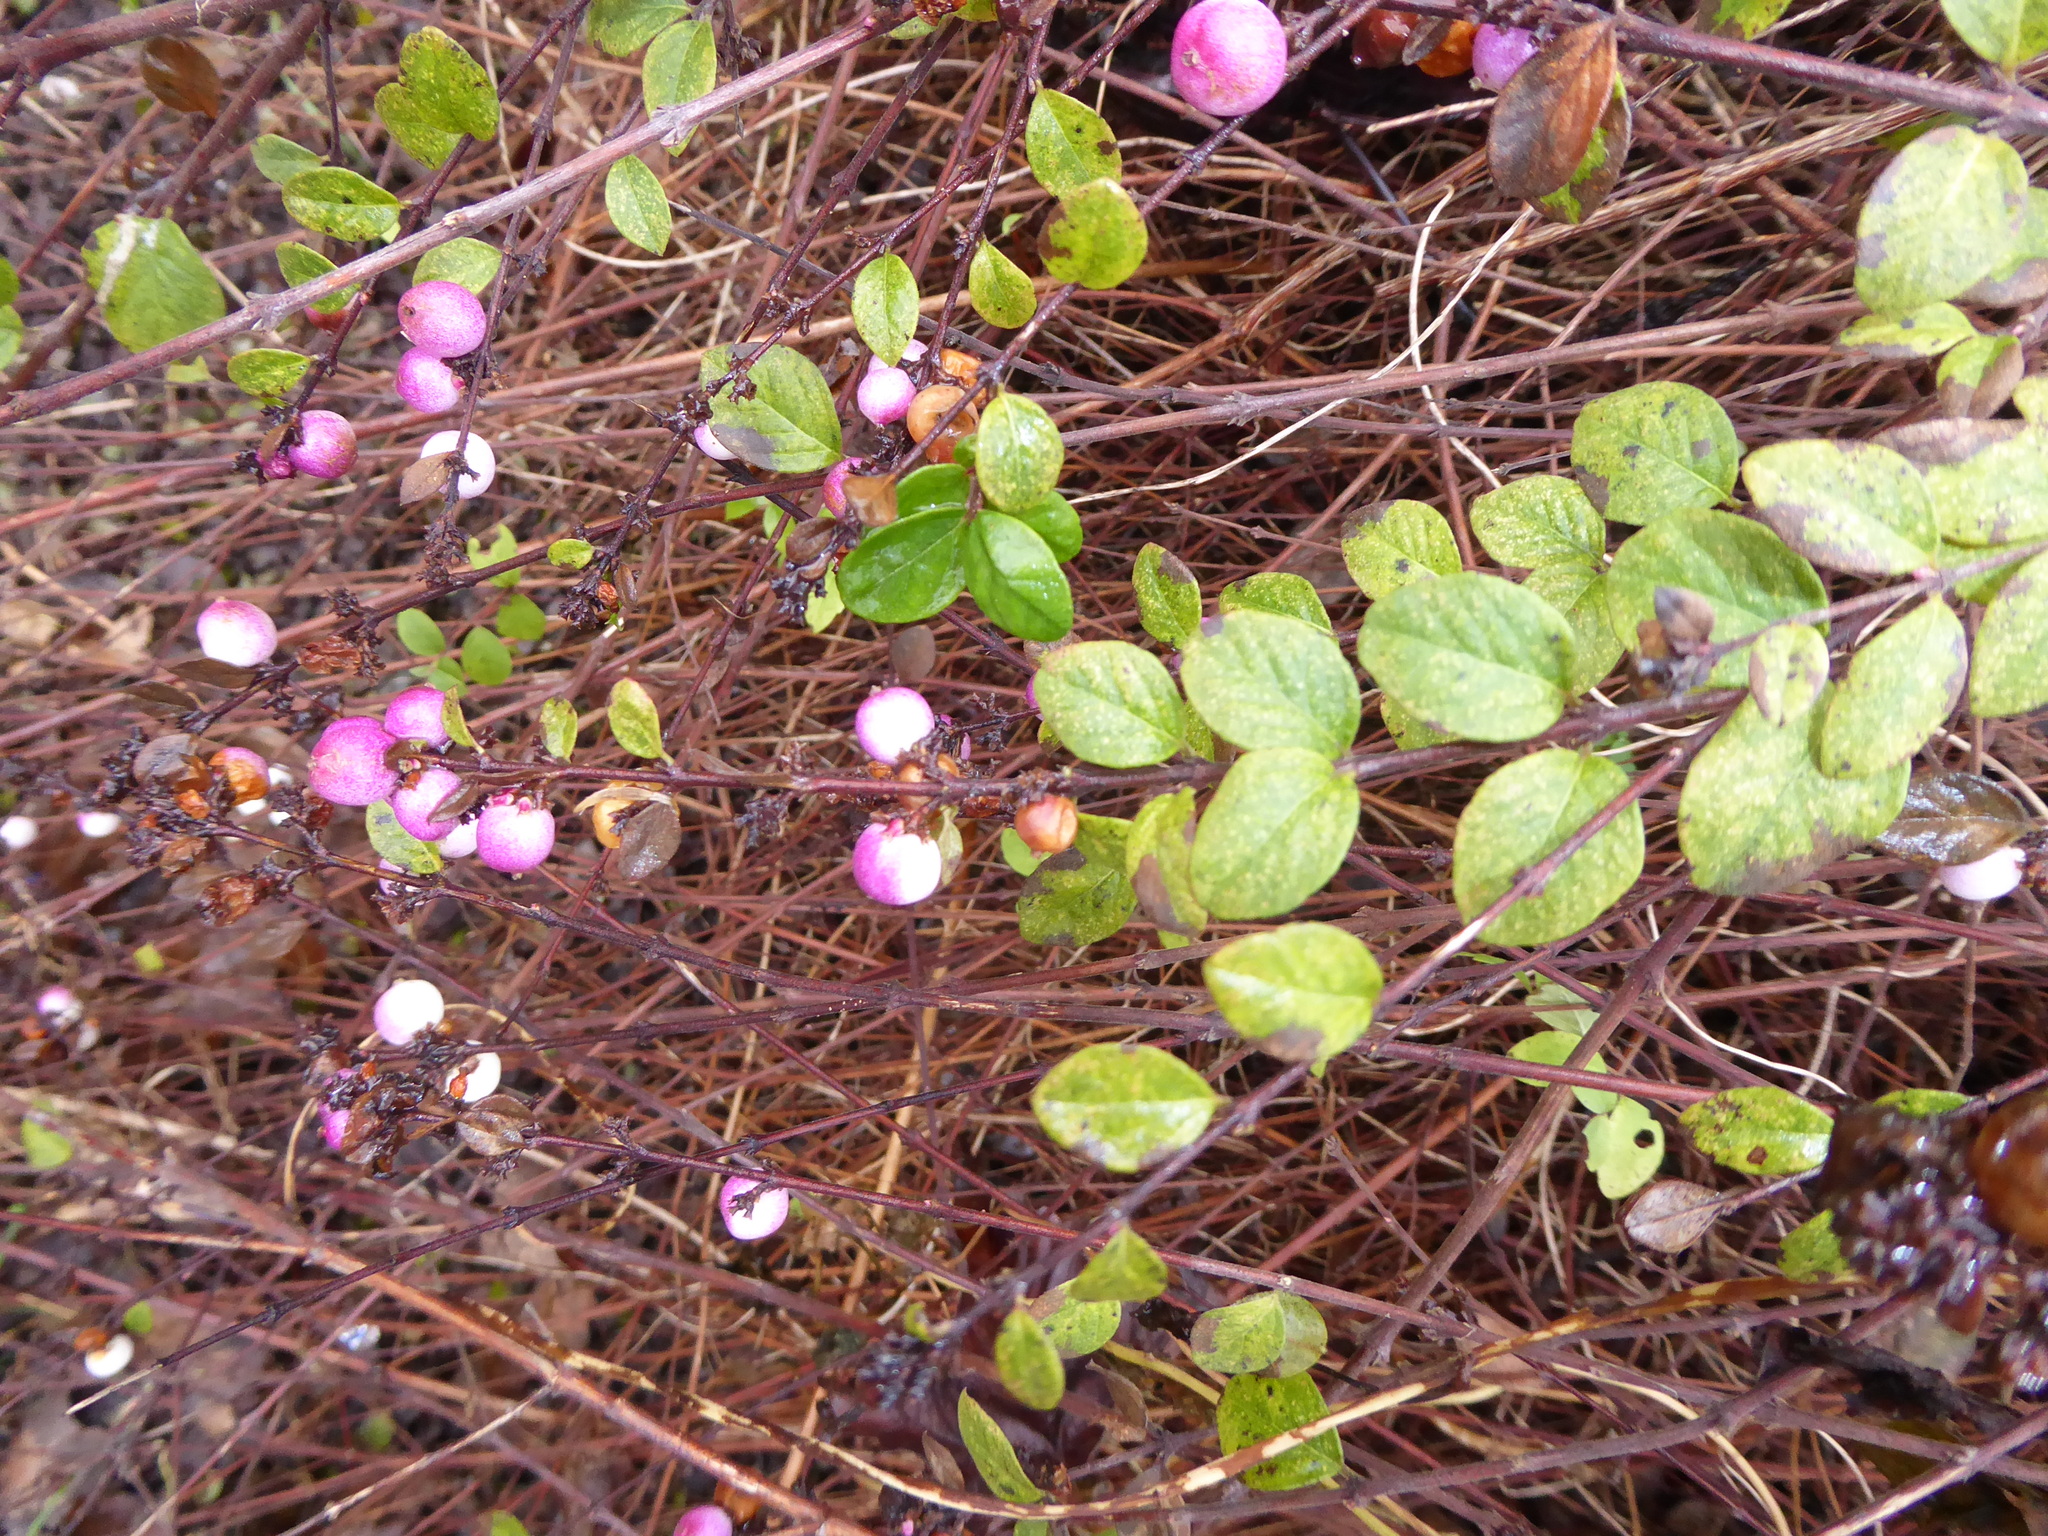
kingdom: Plantae
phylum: Tracheophyta
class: Magnoliopsida
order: Dipsacales
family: Caprifoliaceae
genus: Symphoricarpos
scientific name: Symphoricarpos chenaultii
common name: Hybrid coralberry
